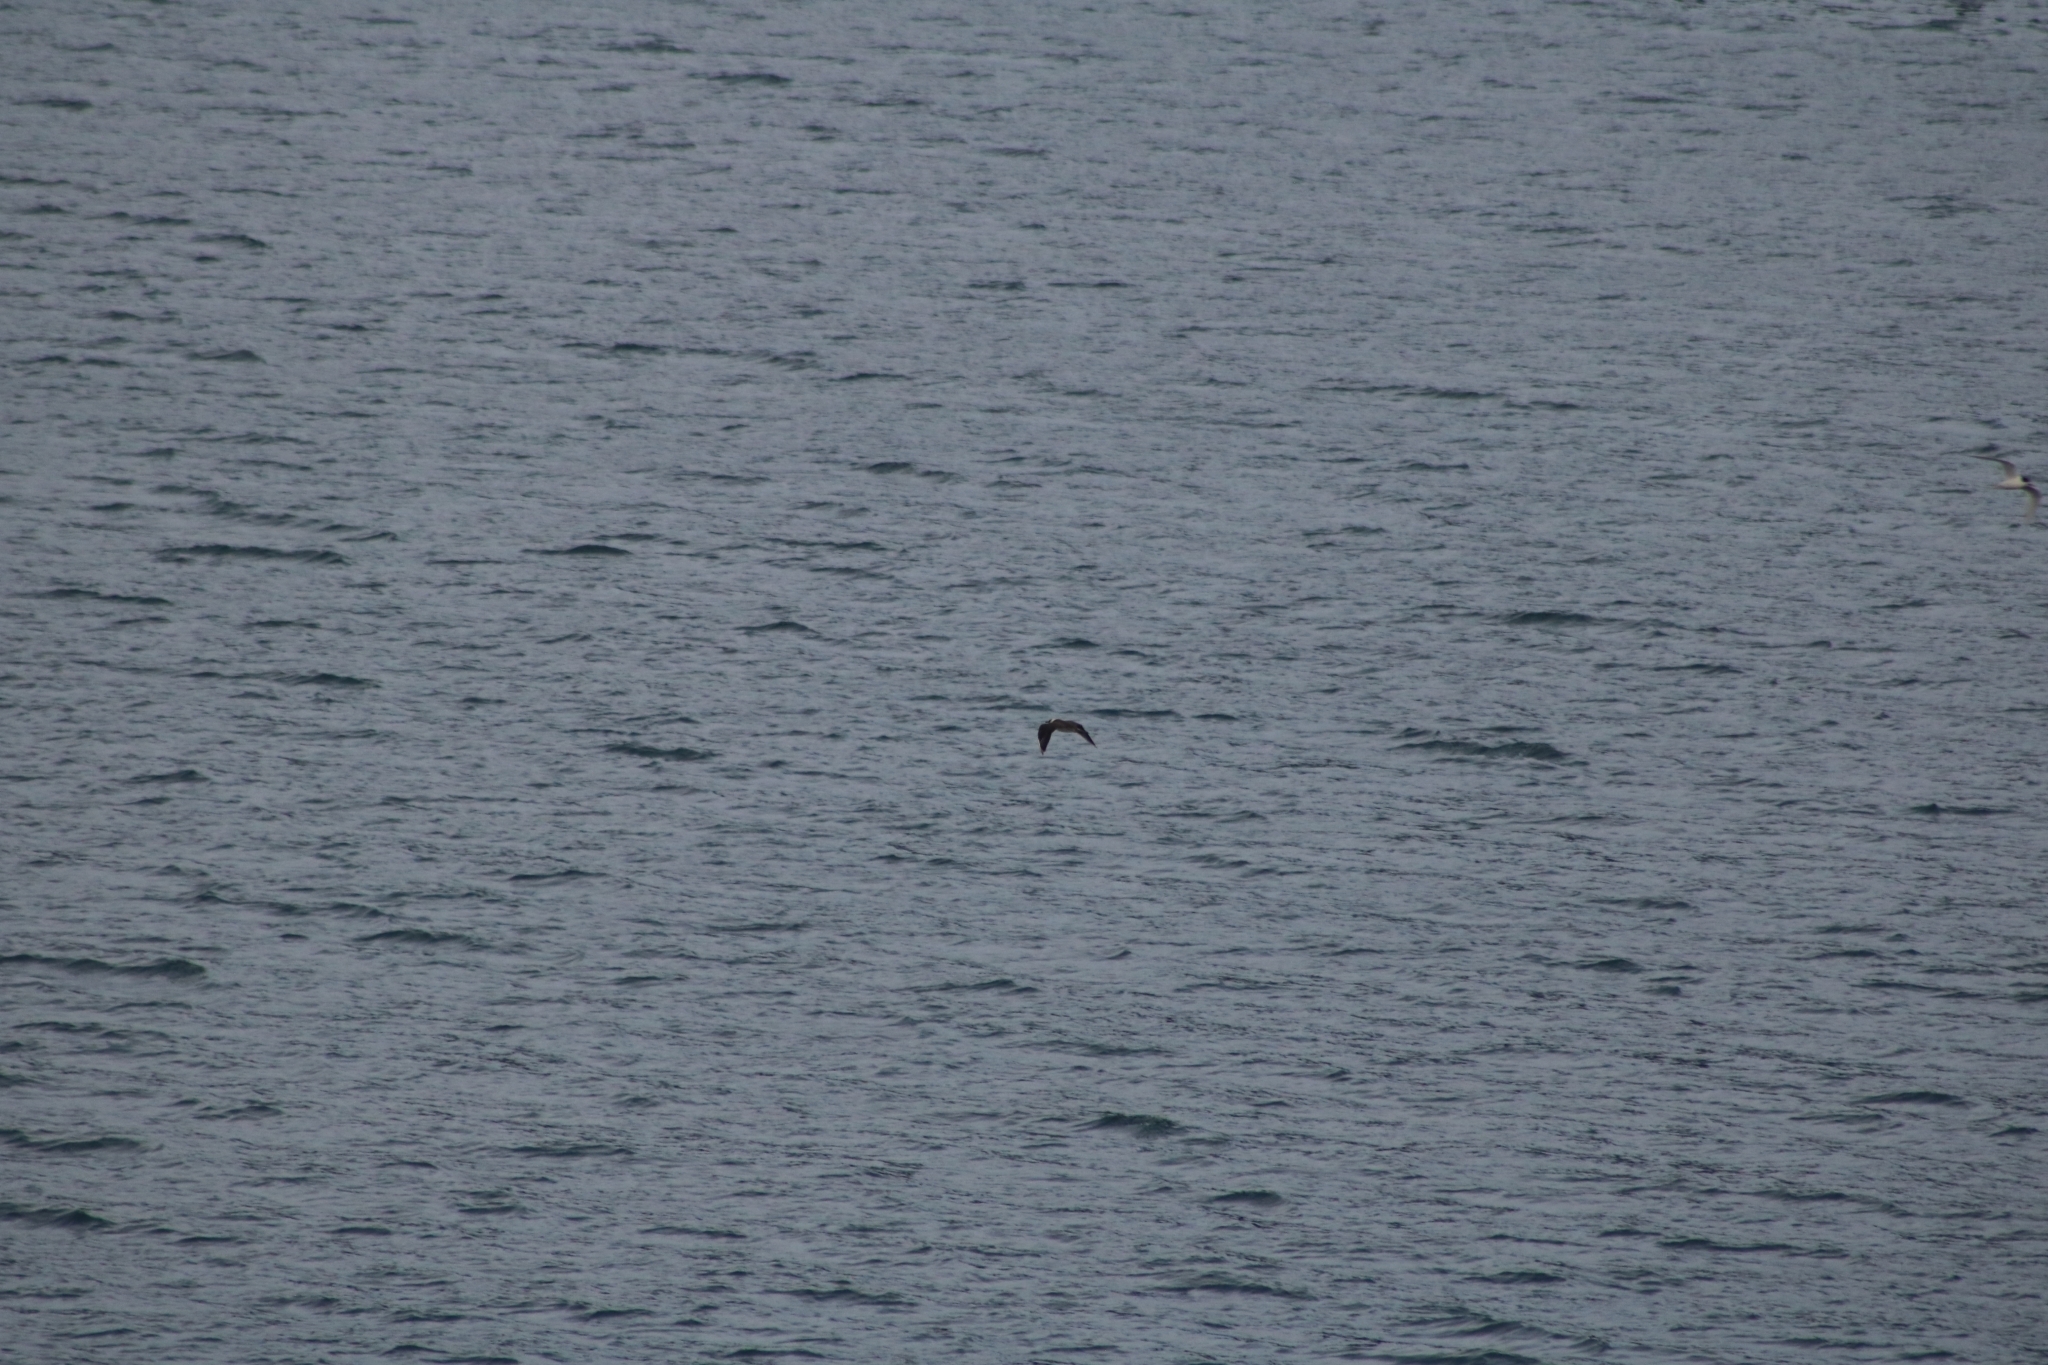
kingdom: Animalia
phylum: Chordata
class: Aves
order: Charadriiformes
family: Stercorariidae
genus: Stercorarius
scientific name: Stercorarius parasiticus
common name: Parasitic jaeger
